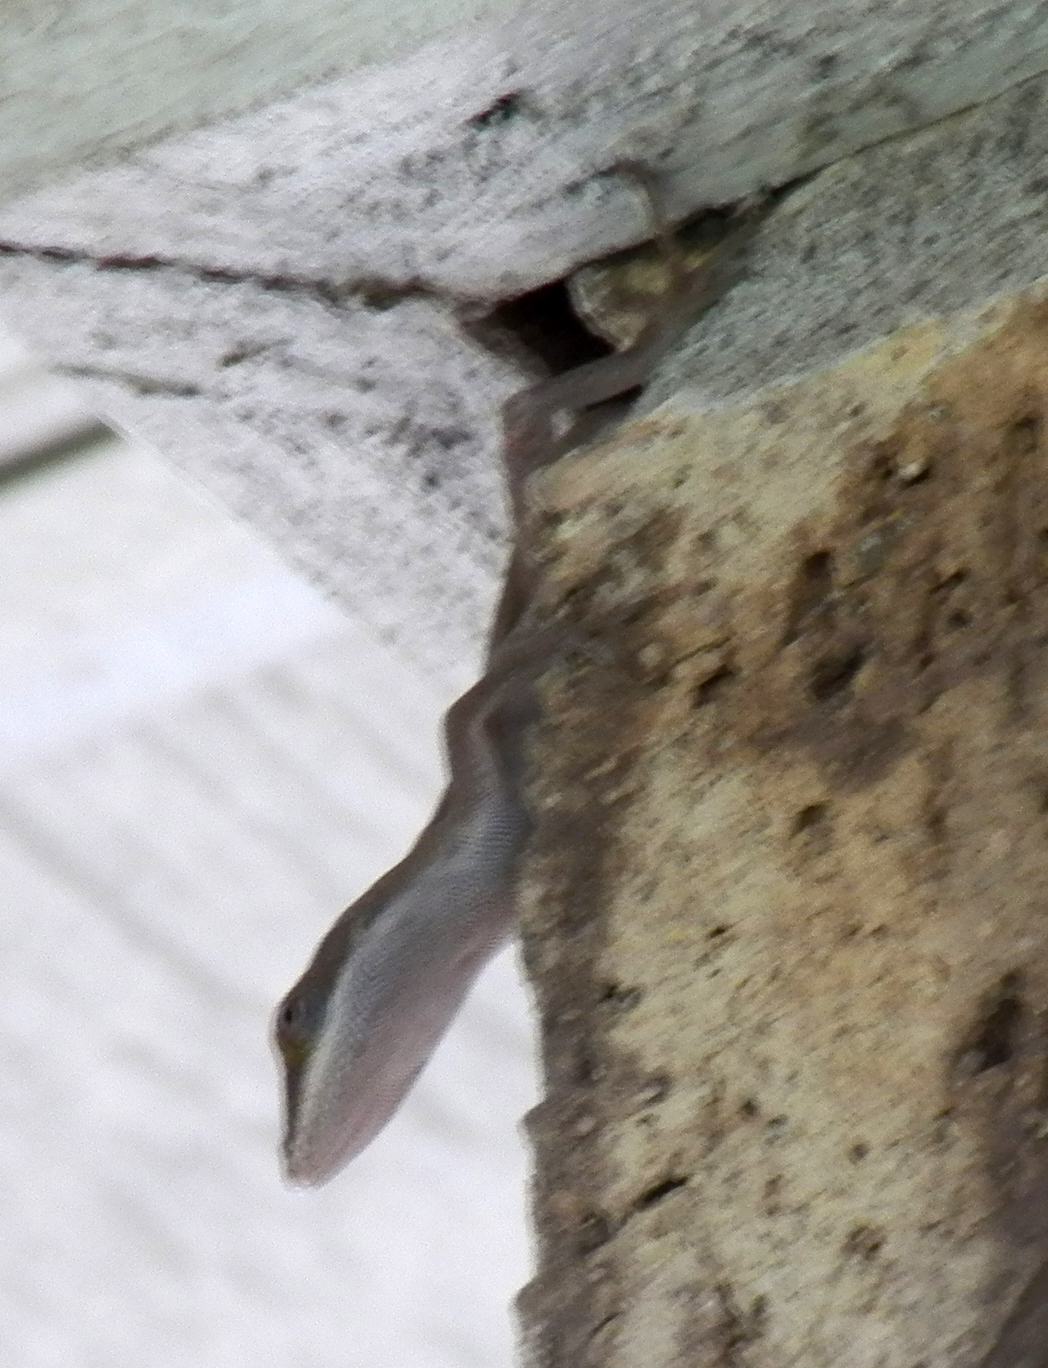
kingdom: Animalia
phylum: Chordata
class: Squamata
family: Dactyloidae
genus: Anolis
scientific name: Anolis carolinensis
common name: Green anole
